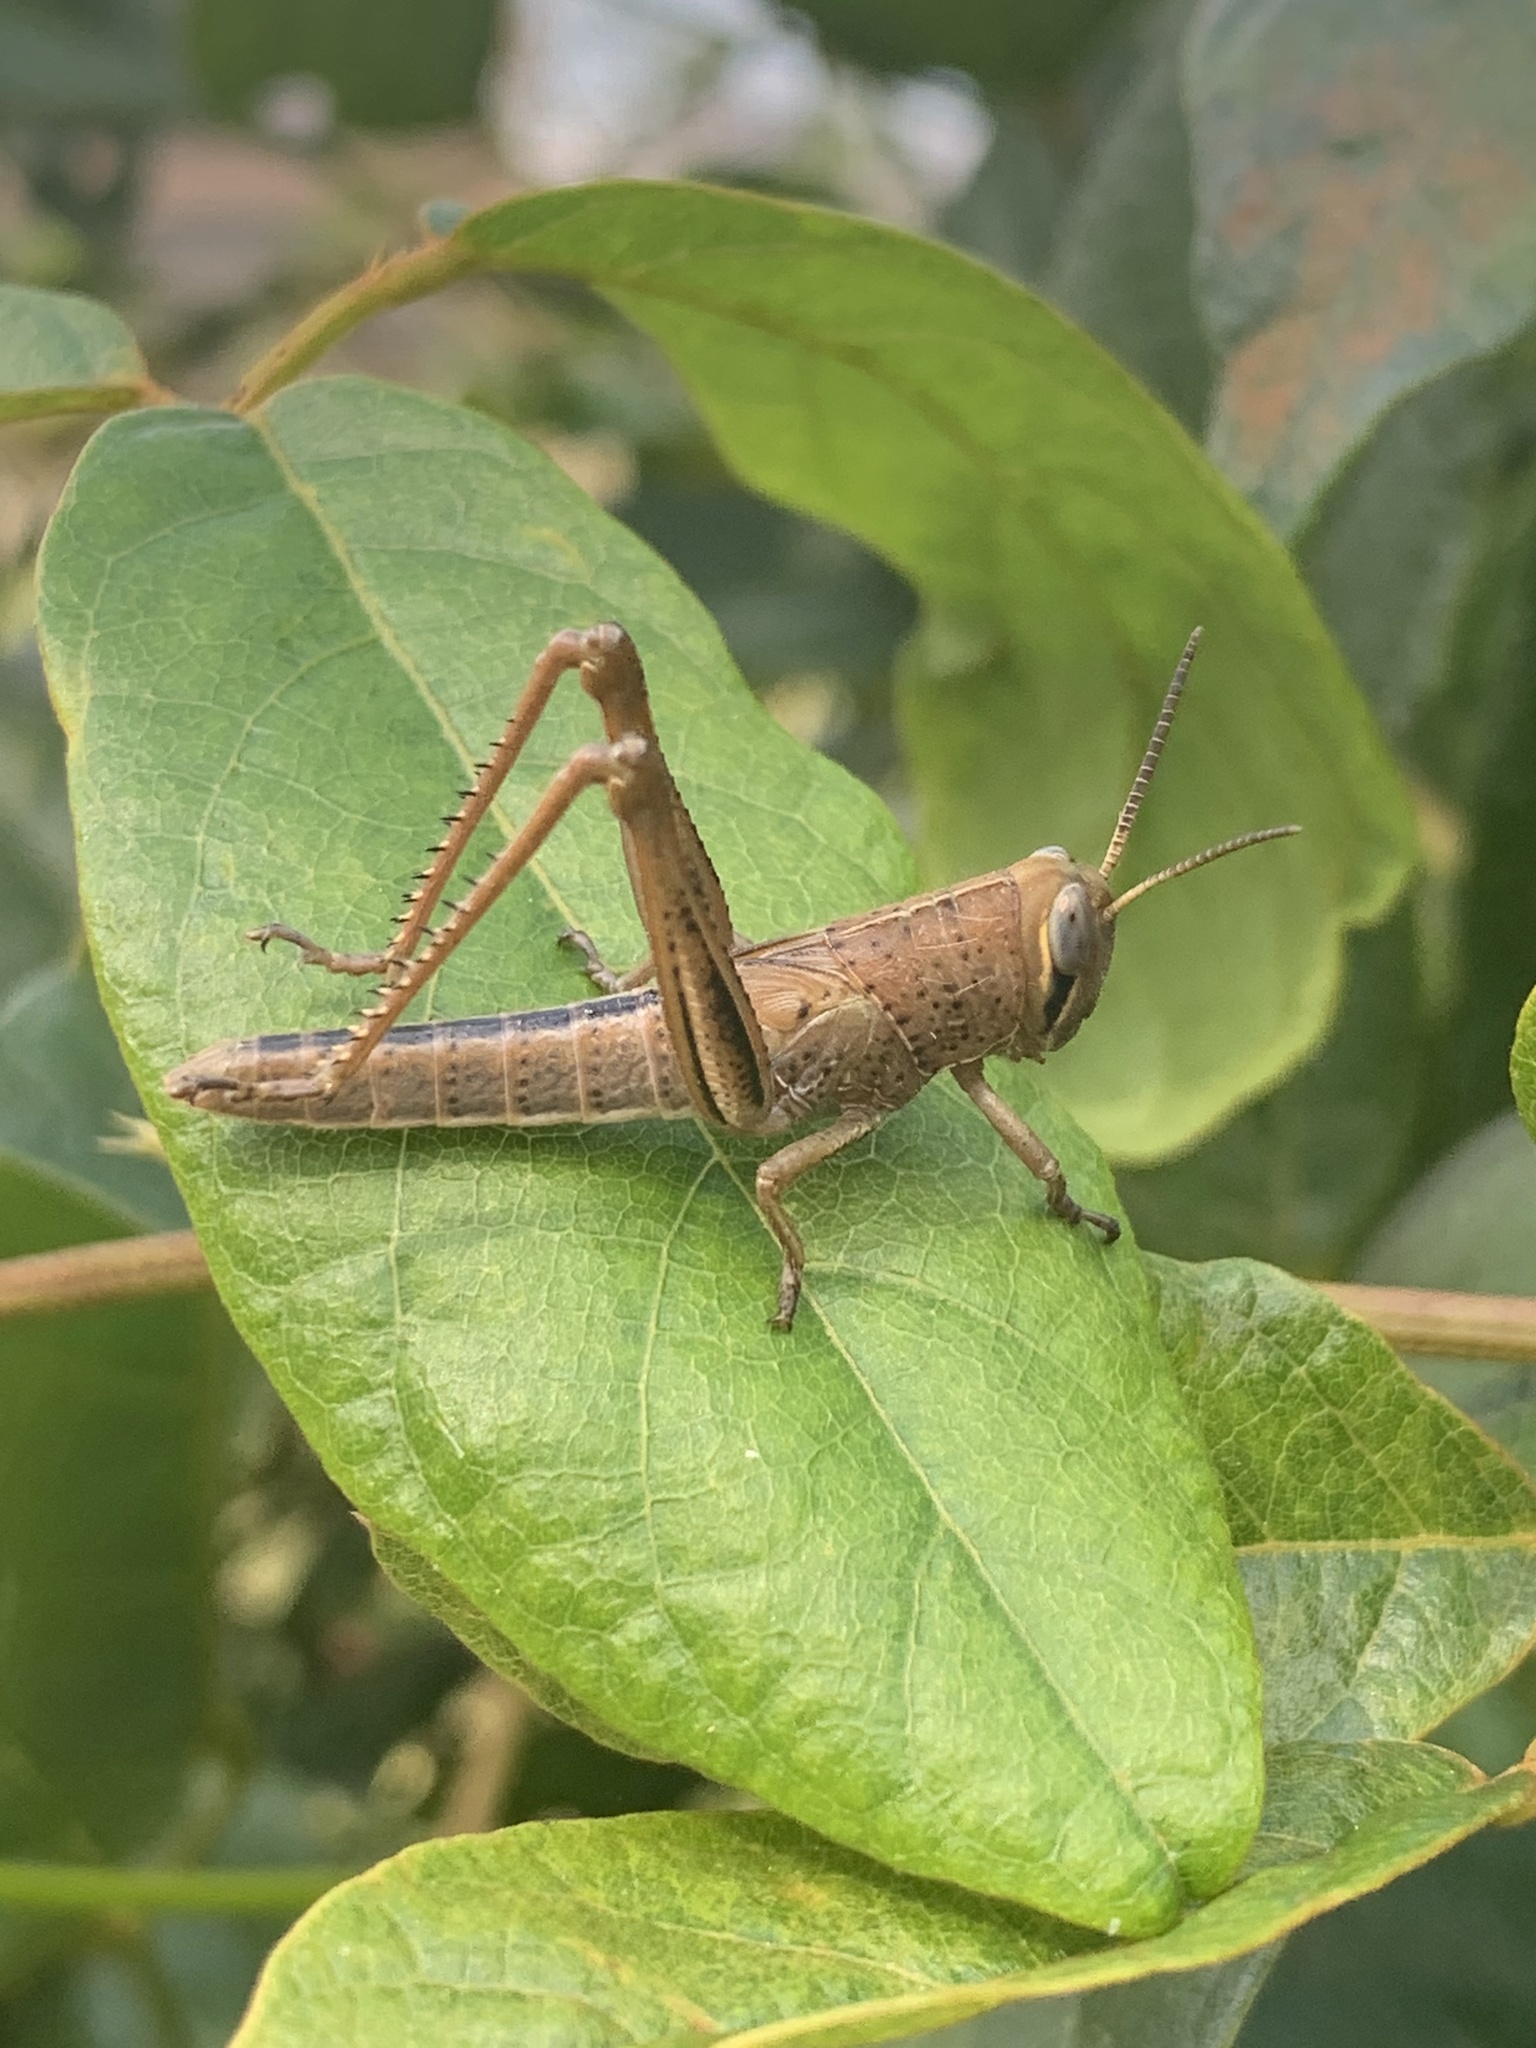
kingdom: Animalia
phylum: Arthropoda
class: Insecta
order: Orthoptera
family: Acrididae
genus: Valanga
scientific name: Valanga irregularis
